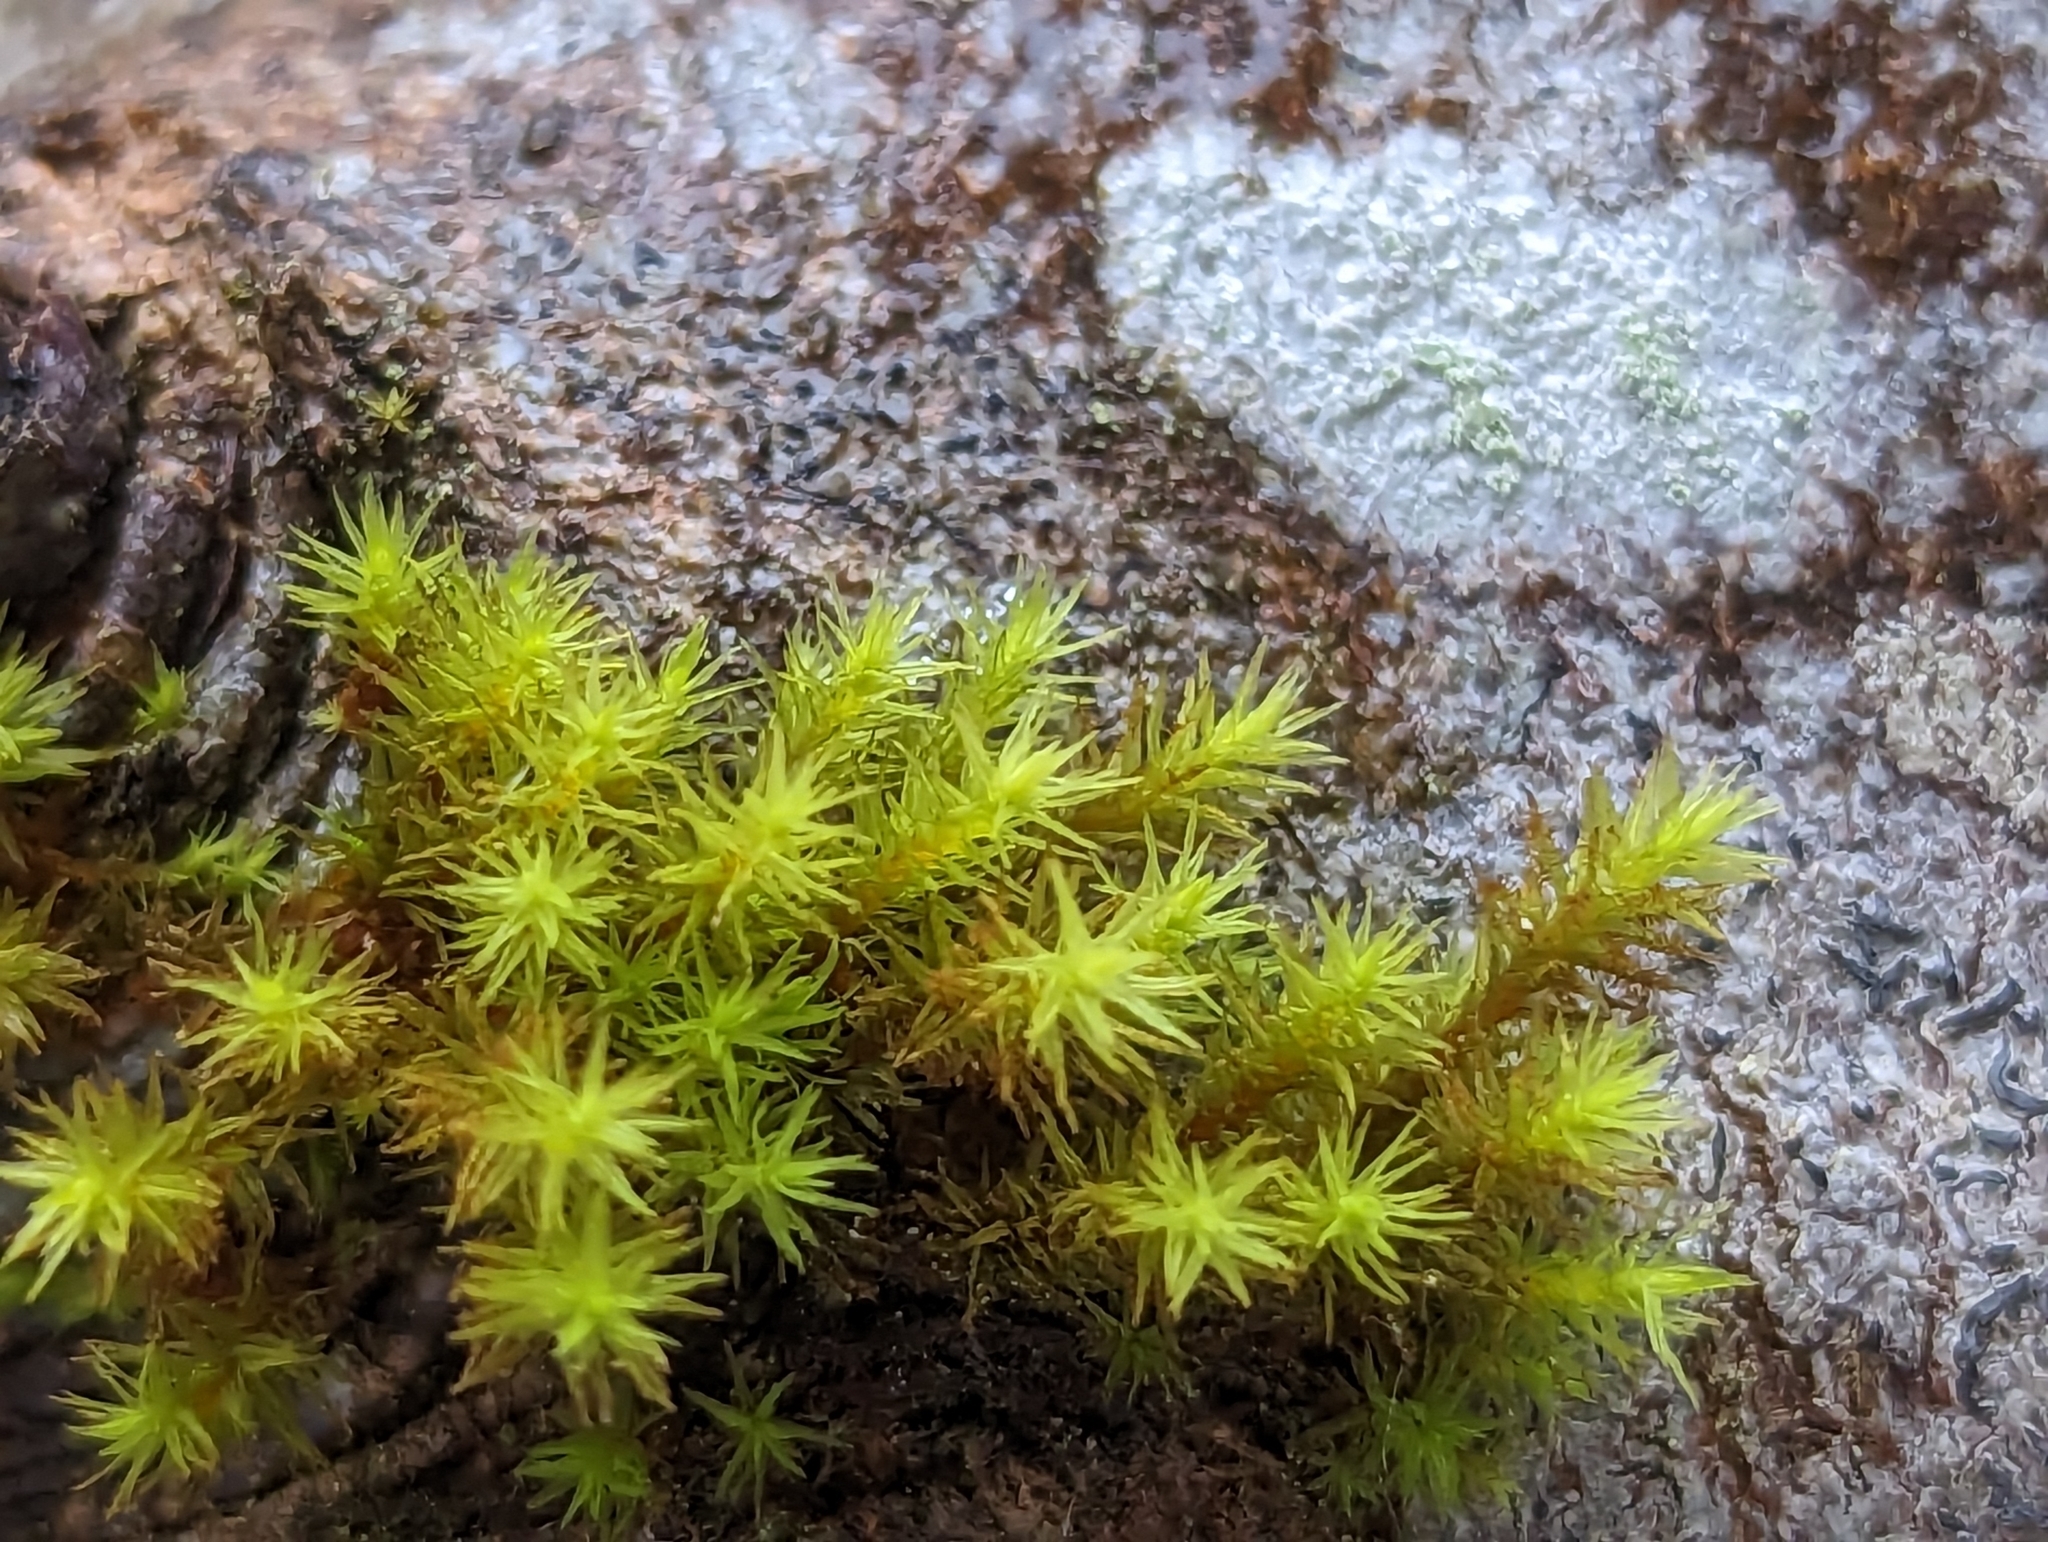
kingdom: Plantae
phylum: Bryophyta
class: Bryopsida
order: Orthotrichales
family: Orthotrichaceae
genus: Pulvigera
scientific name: Pulvigera lyellii
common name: Lyell's bristle-moss
